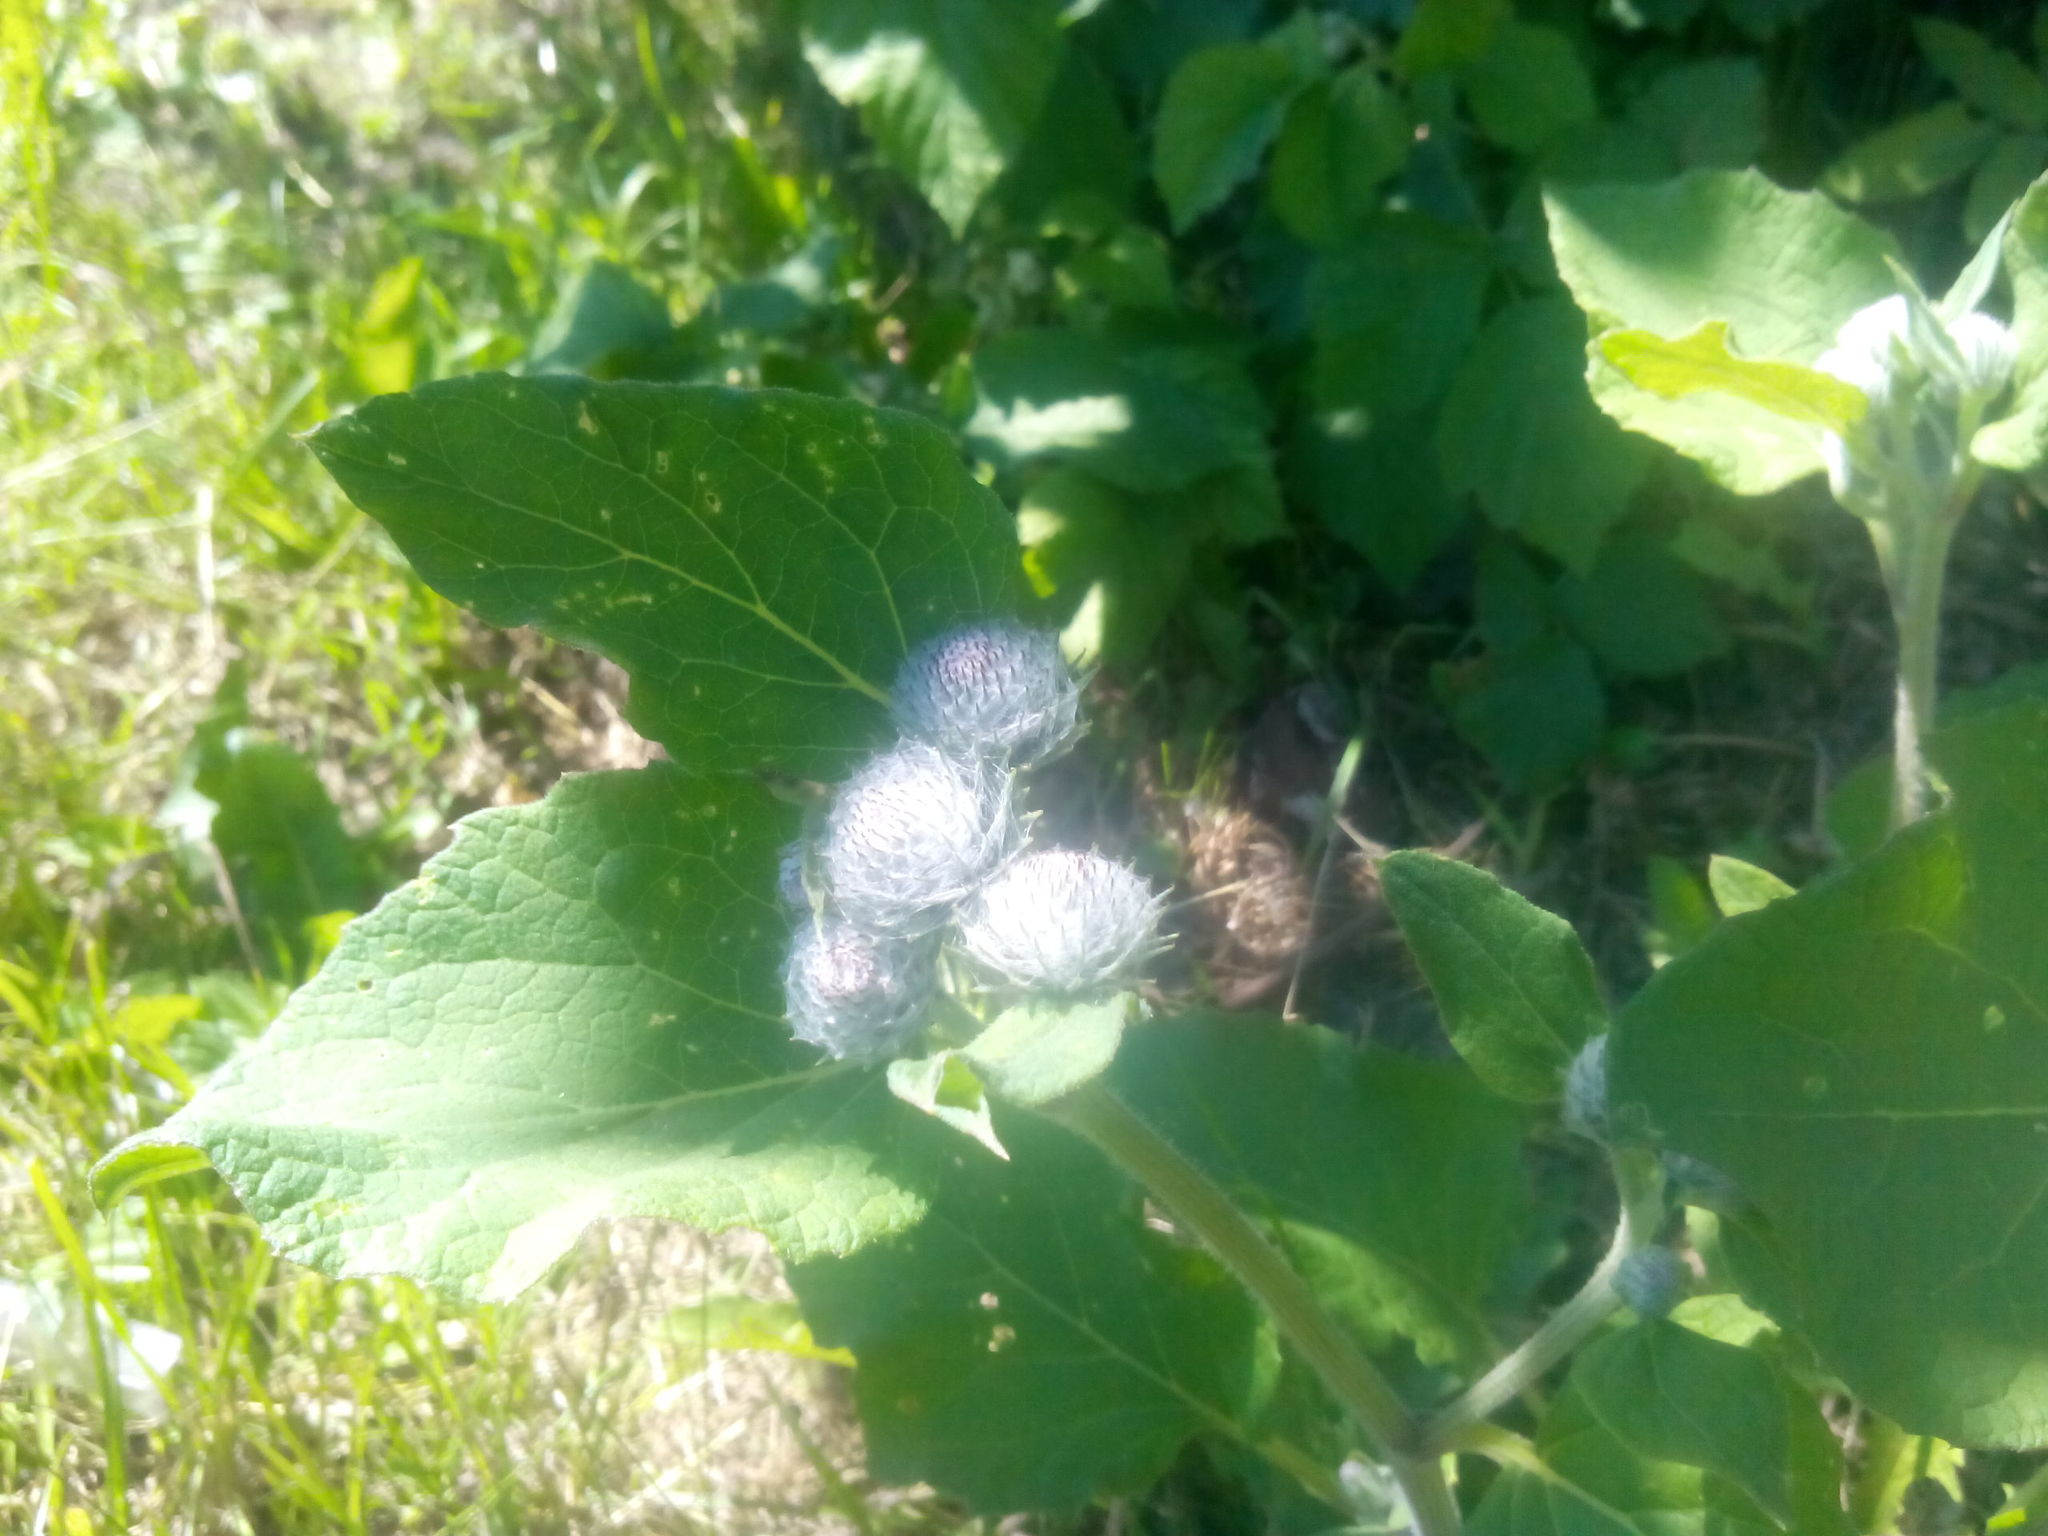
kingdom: Plantae
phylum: Tracheophyta
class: Magnoliopsida
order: Asterales
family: Asteraceae
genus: Arctium
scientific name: Arctium tomentosum
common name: Woolly burdock
